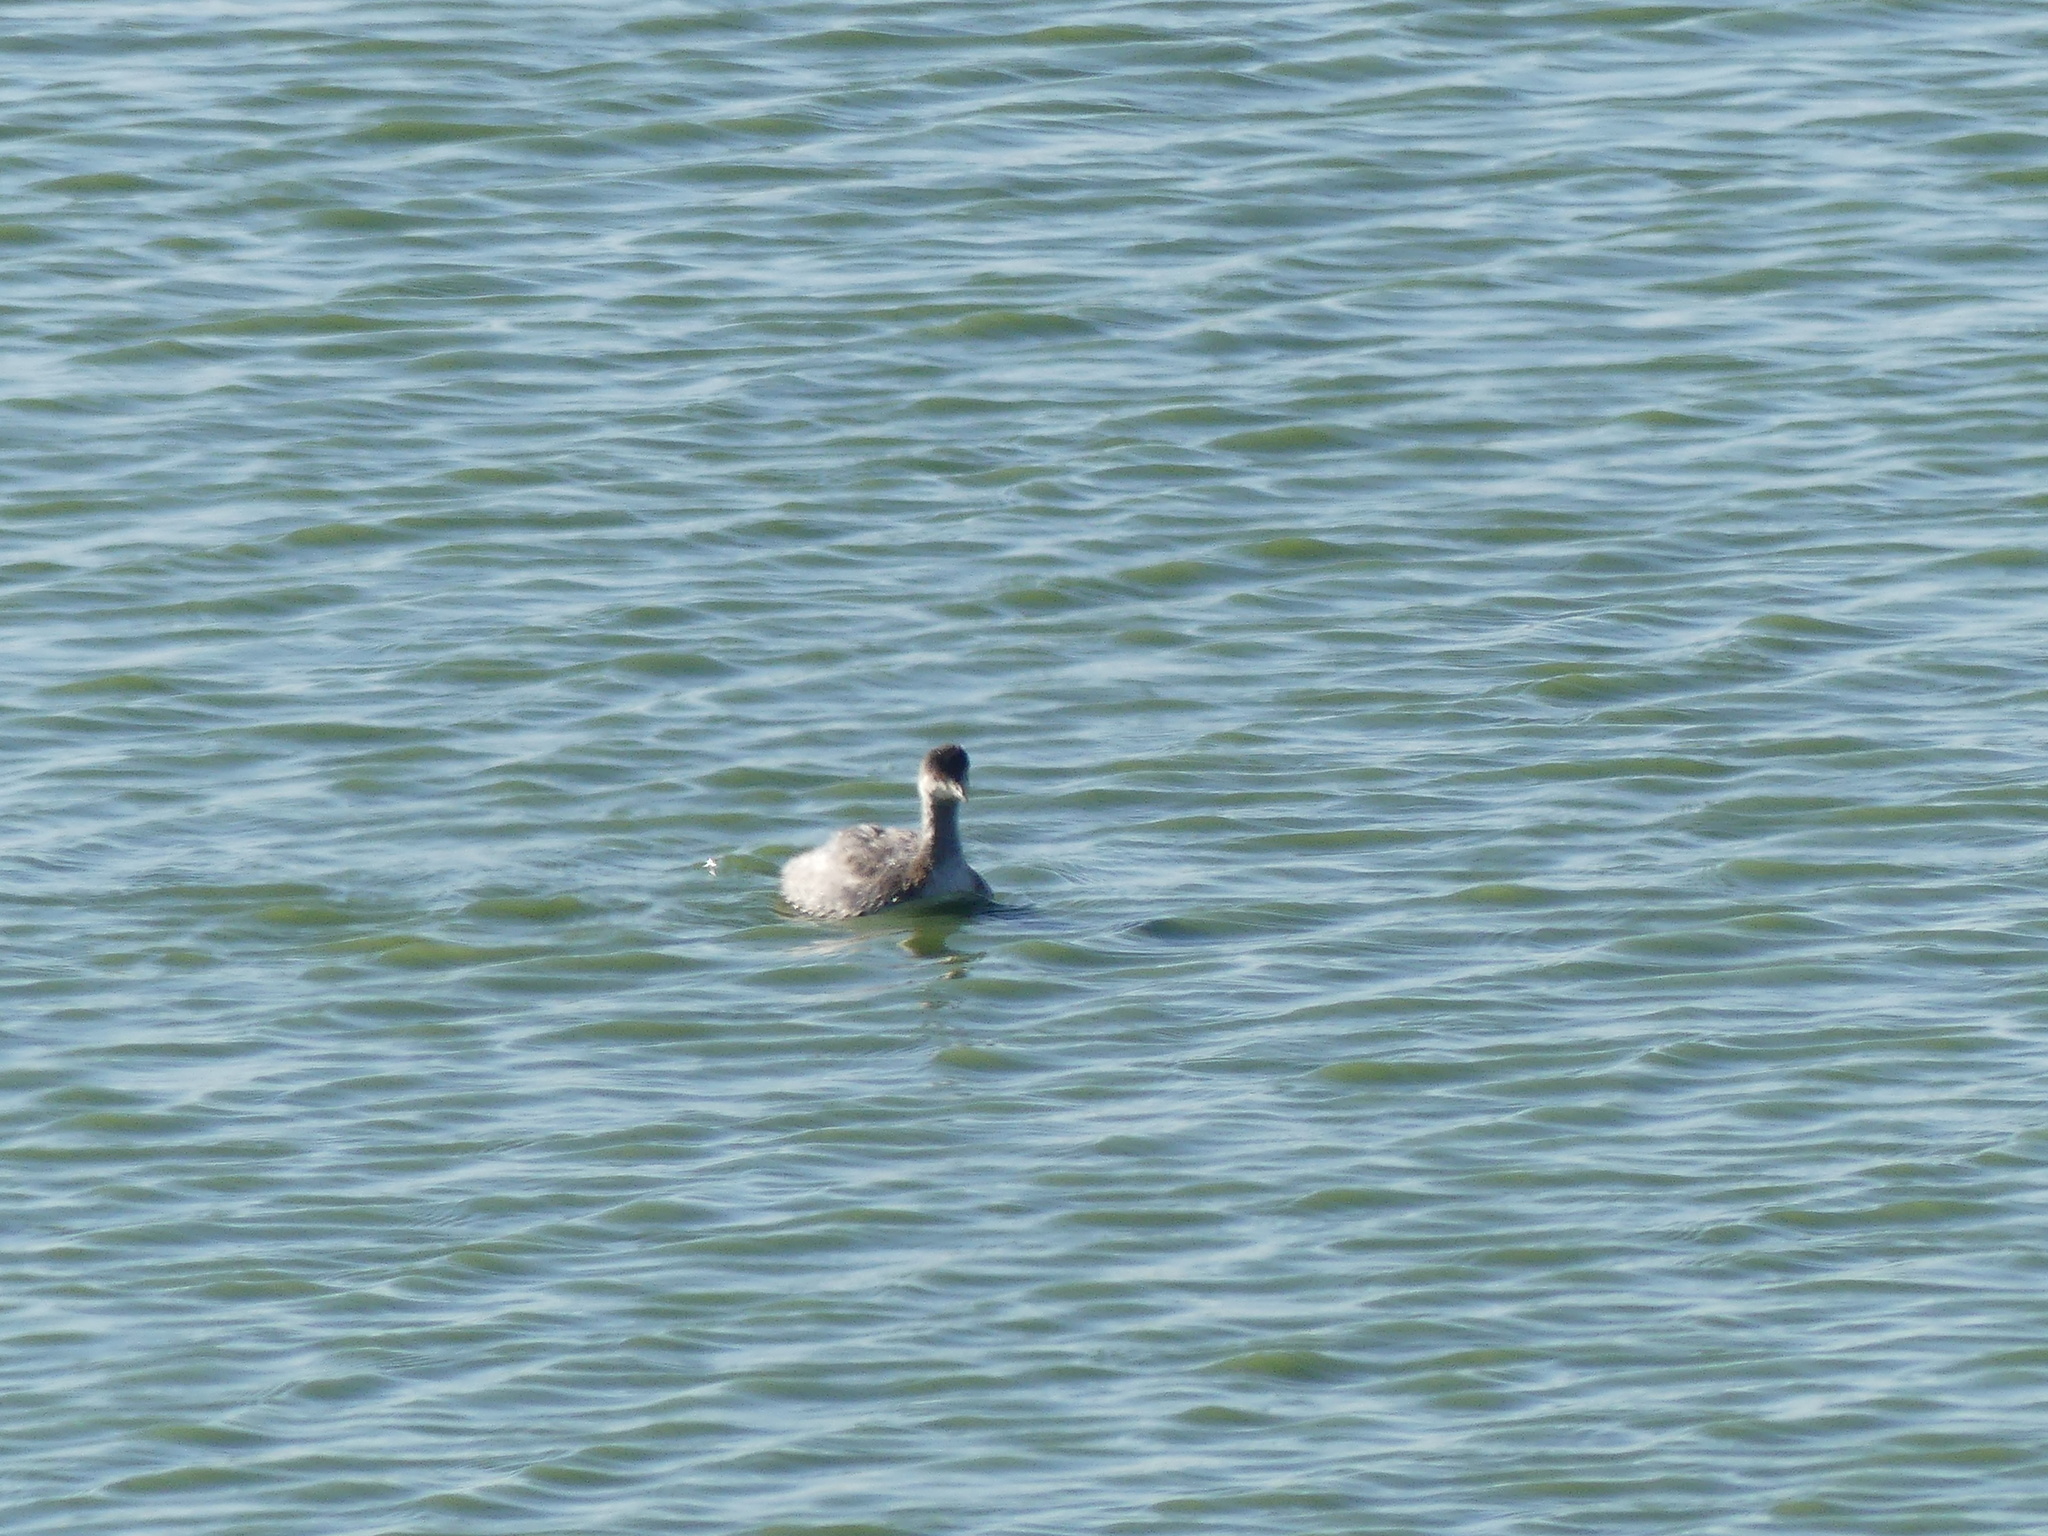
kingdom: Animalia
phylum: Chordata
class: Aves
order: Podicipediformes
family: Podicipedidae
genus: Podiceps
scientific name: Podiceps nigricollis
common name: Black-necked grebe
